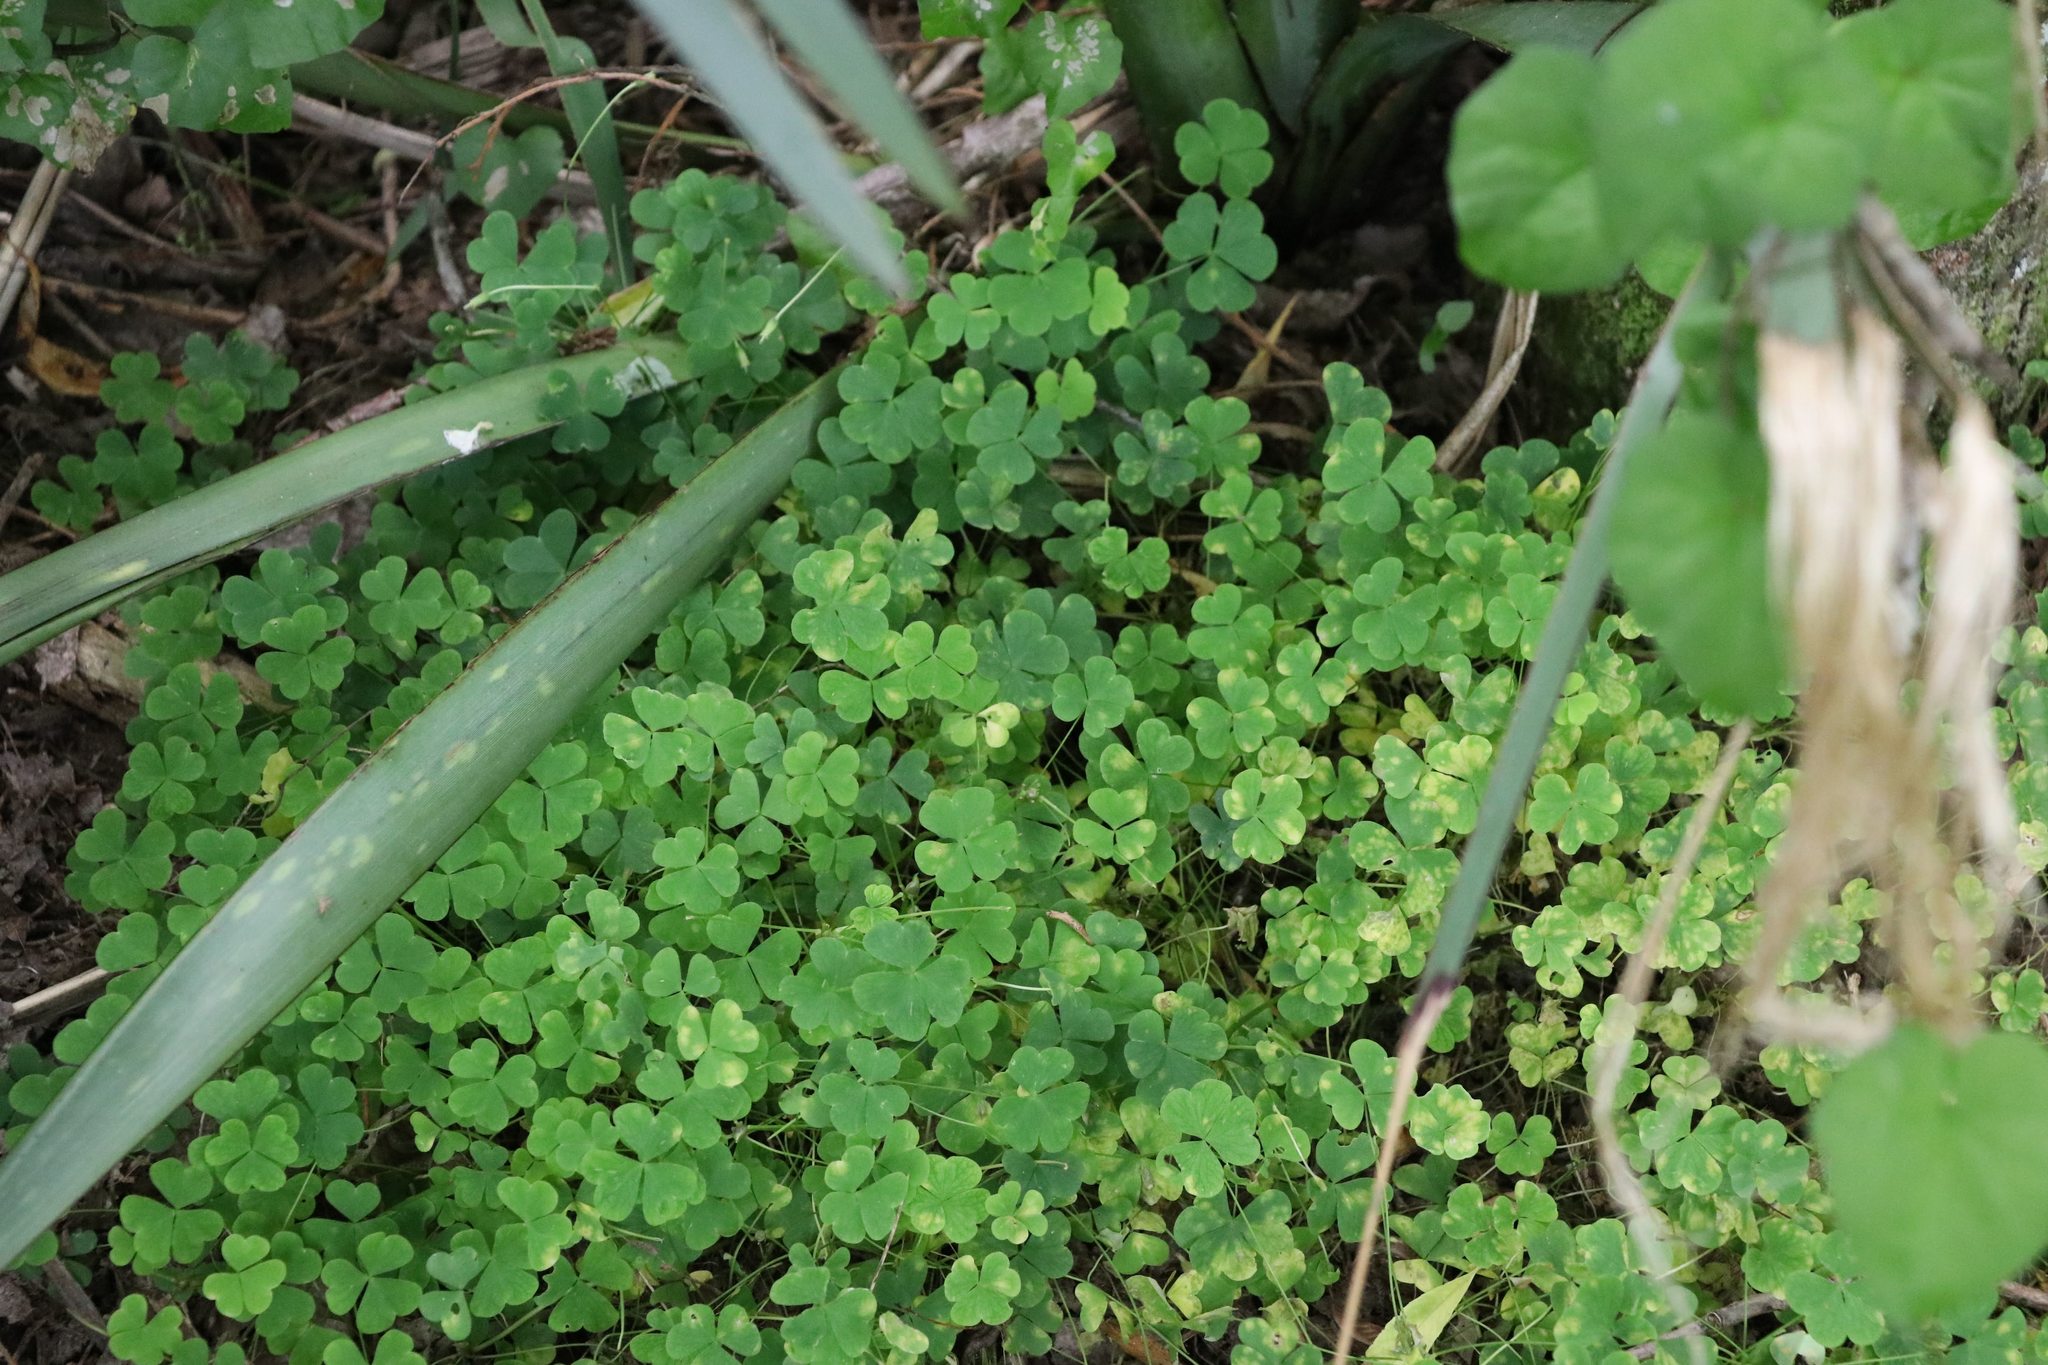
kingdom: Plantae
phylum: Tracheophyta
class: Magnoliopsida
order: Oxalidales
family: Oxalidaceae
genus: Oxalis
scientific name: Oxalis incarnata
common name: Pale pink-sorrel
